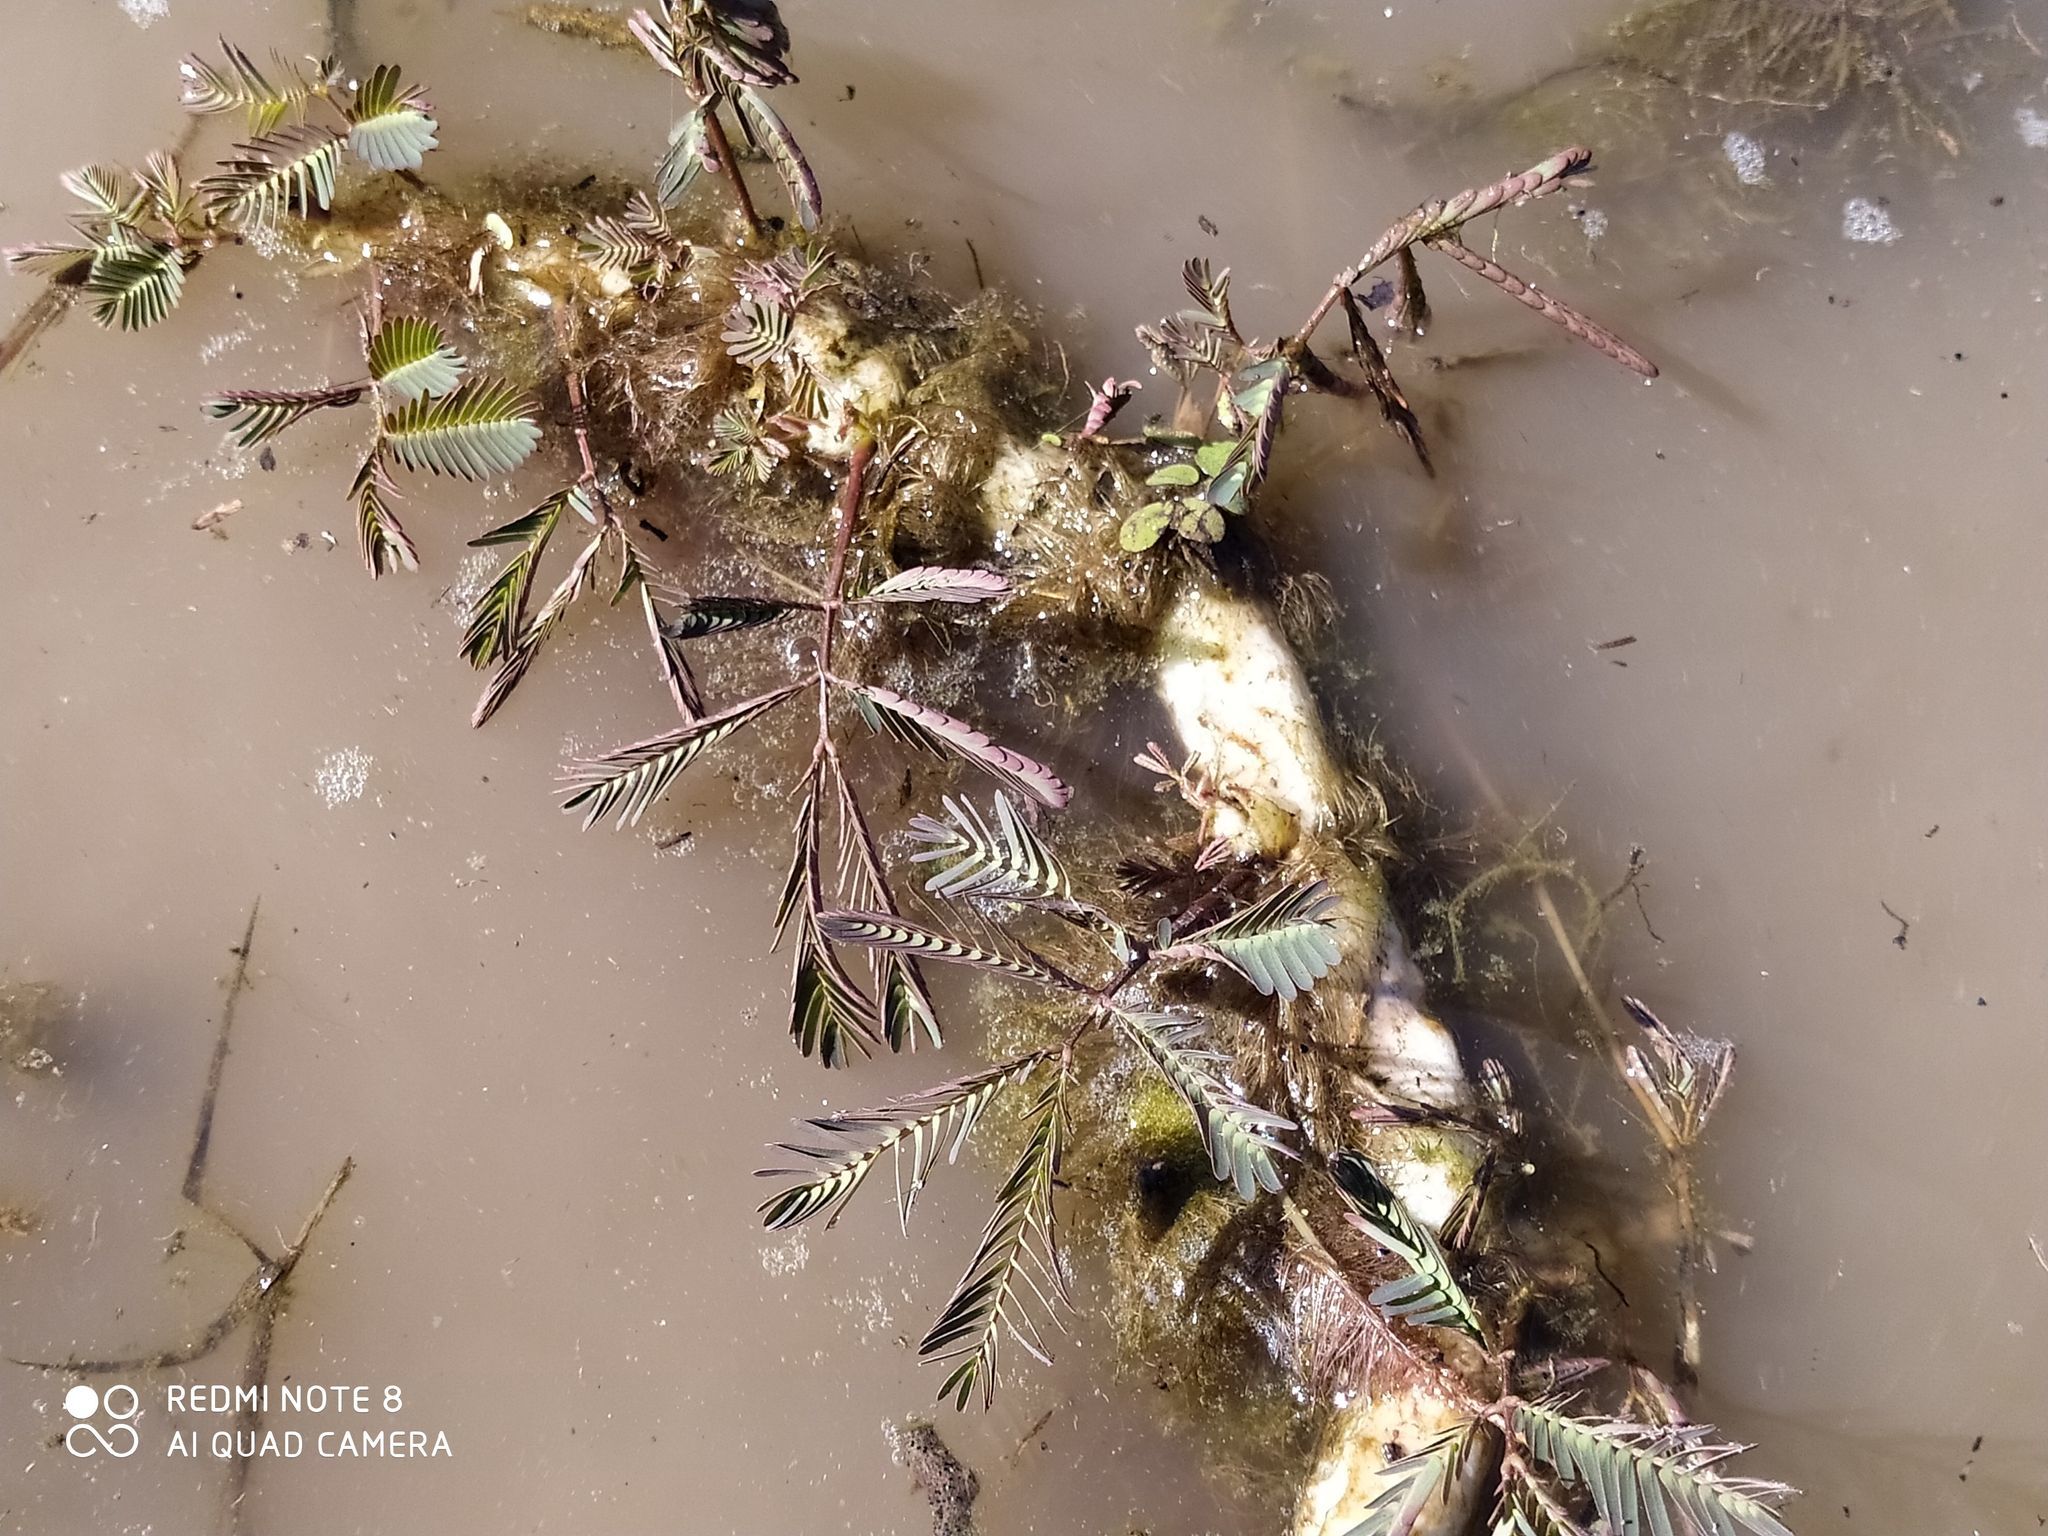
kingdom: Plantae
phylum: Tracheophyta
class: Magnoliopsida
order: Fabales
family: Fabaceae
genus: Neptunia
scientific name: Neptunia prostrata
